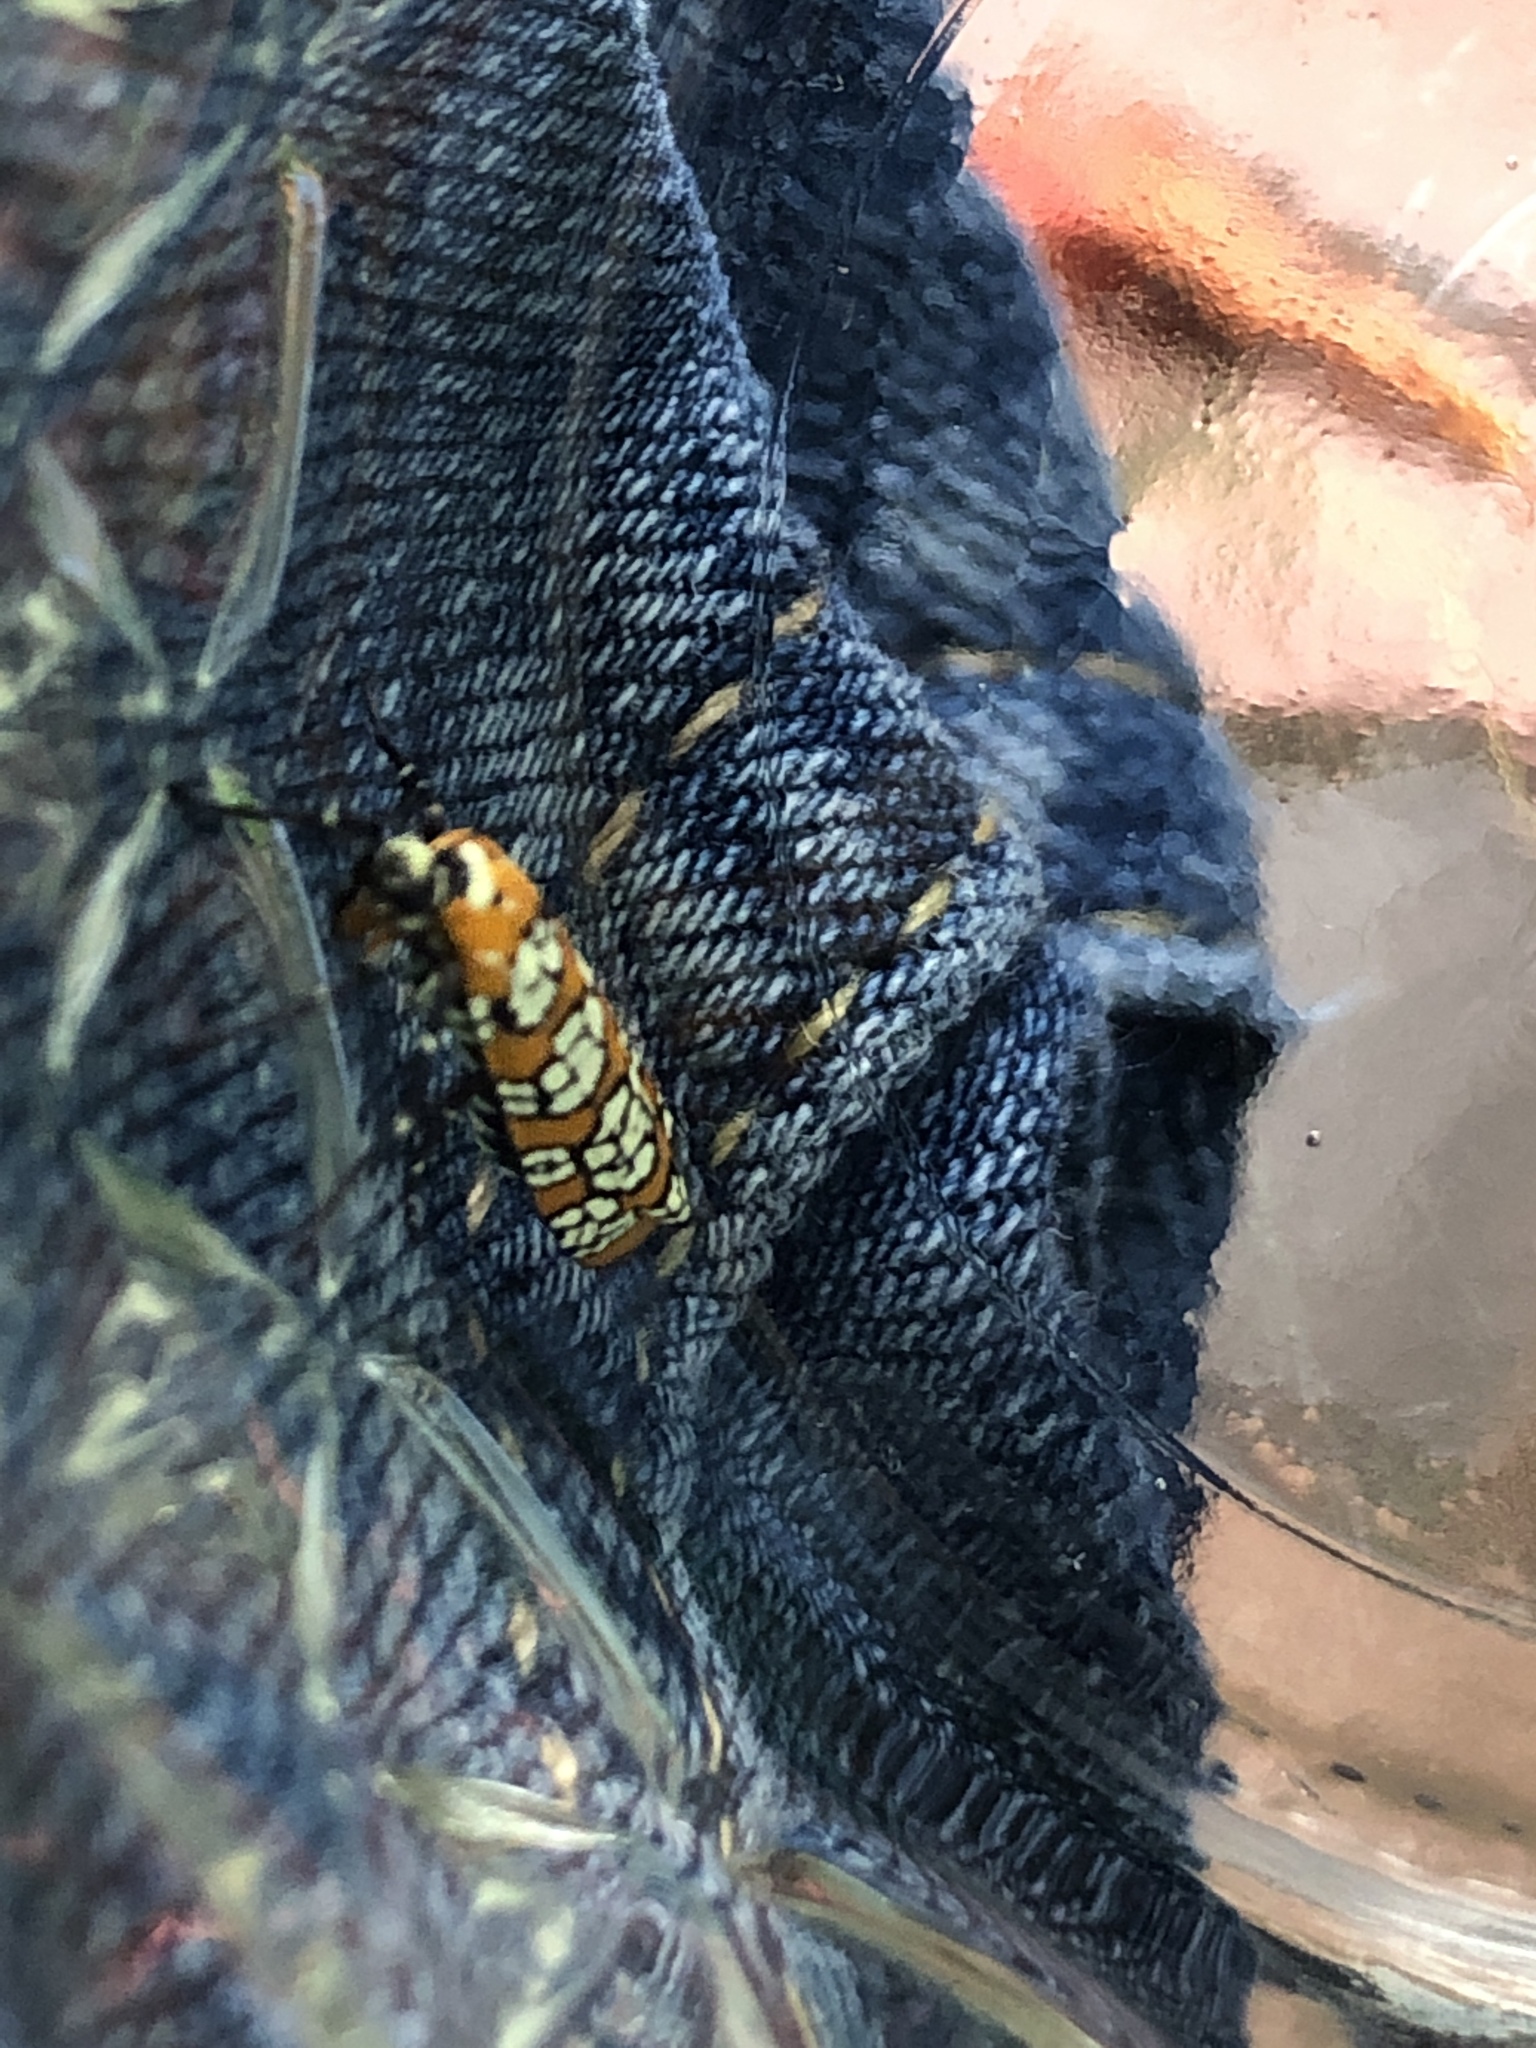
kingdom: Animalia
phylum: Arthropoda
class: Insecta
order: Lepidoptera
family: Attevidae
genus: Atteva
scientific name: Atteva punctella
